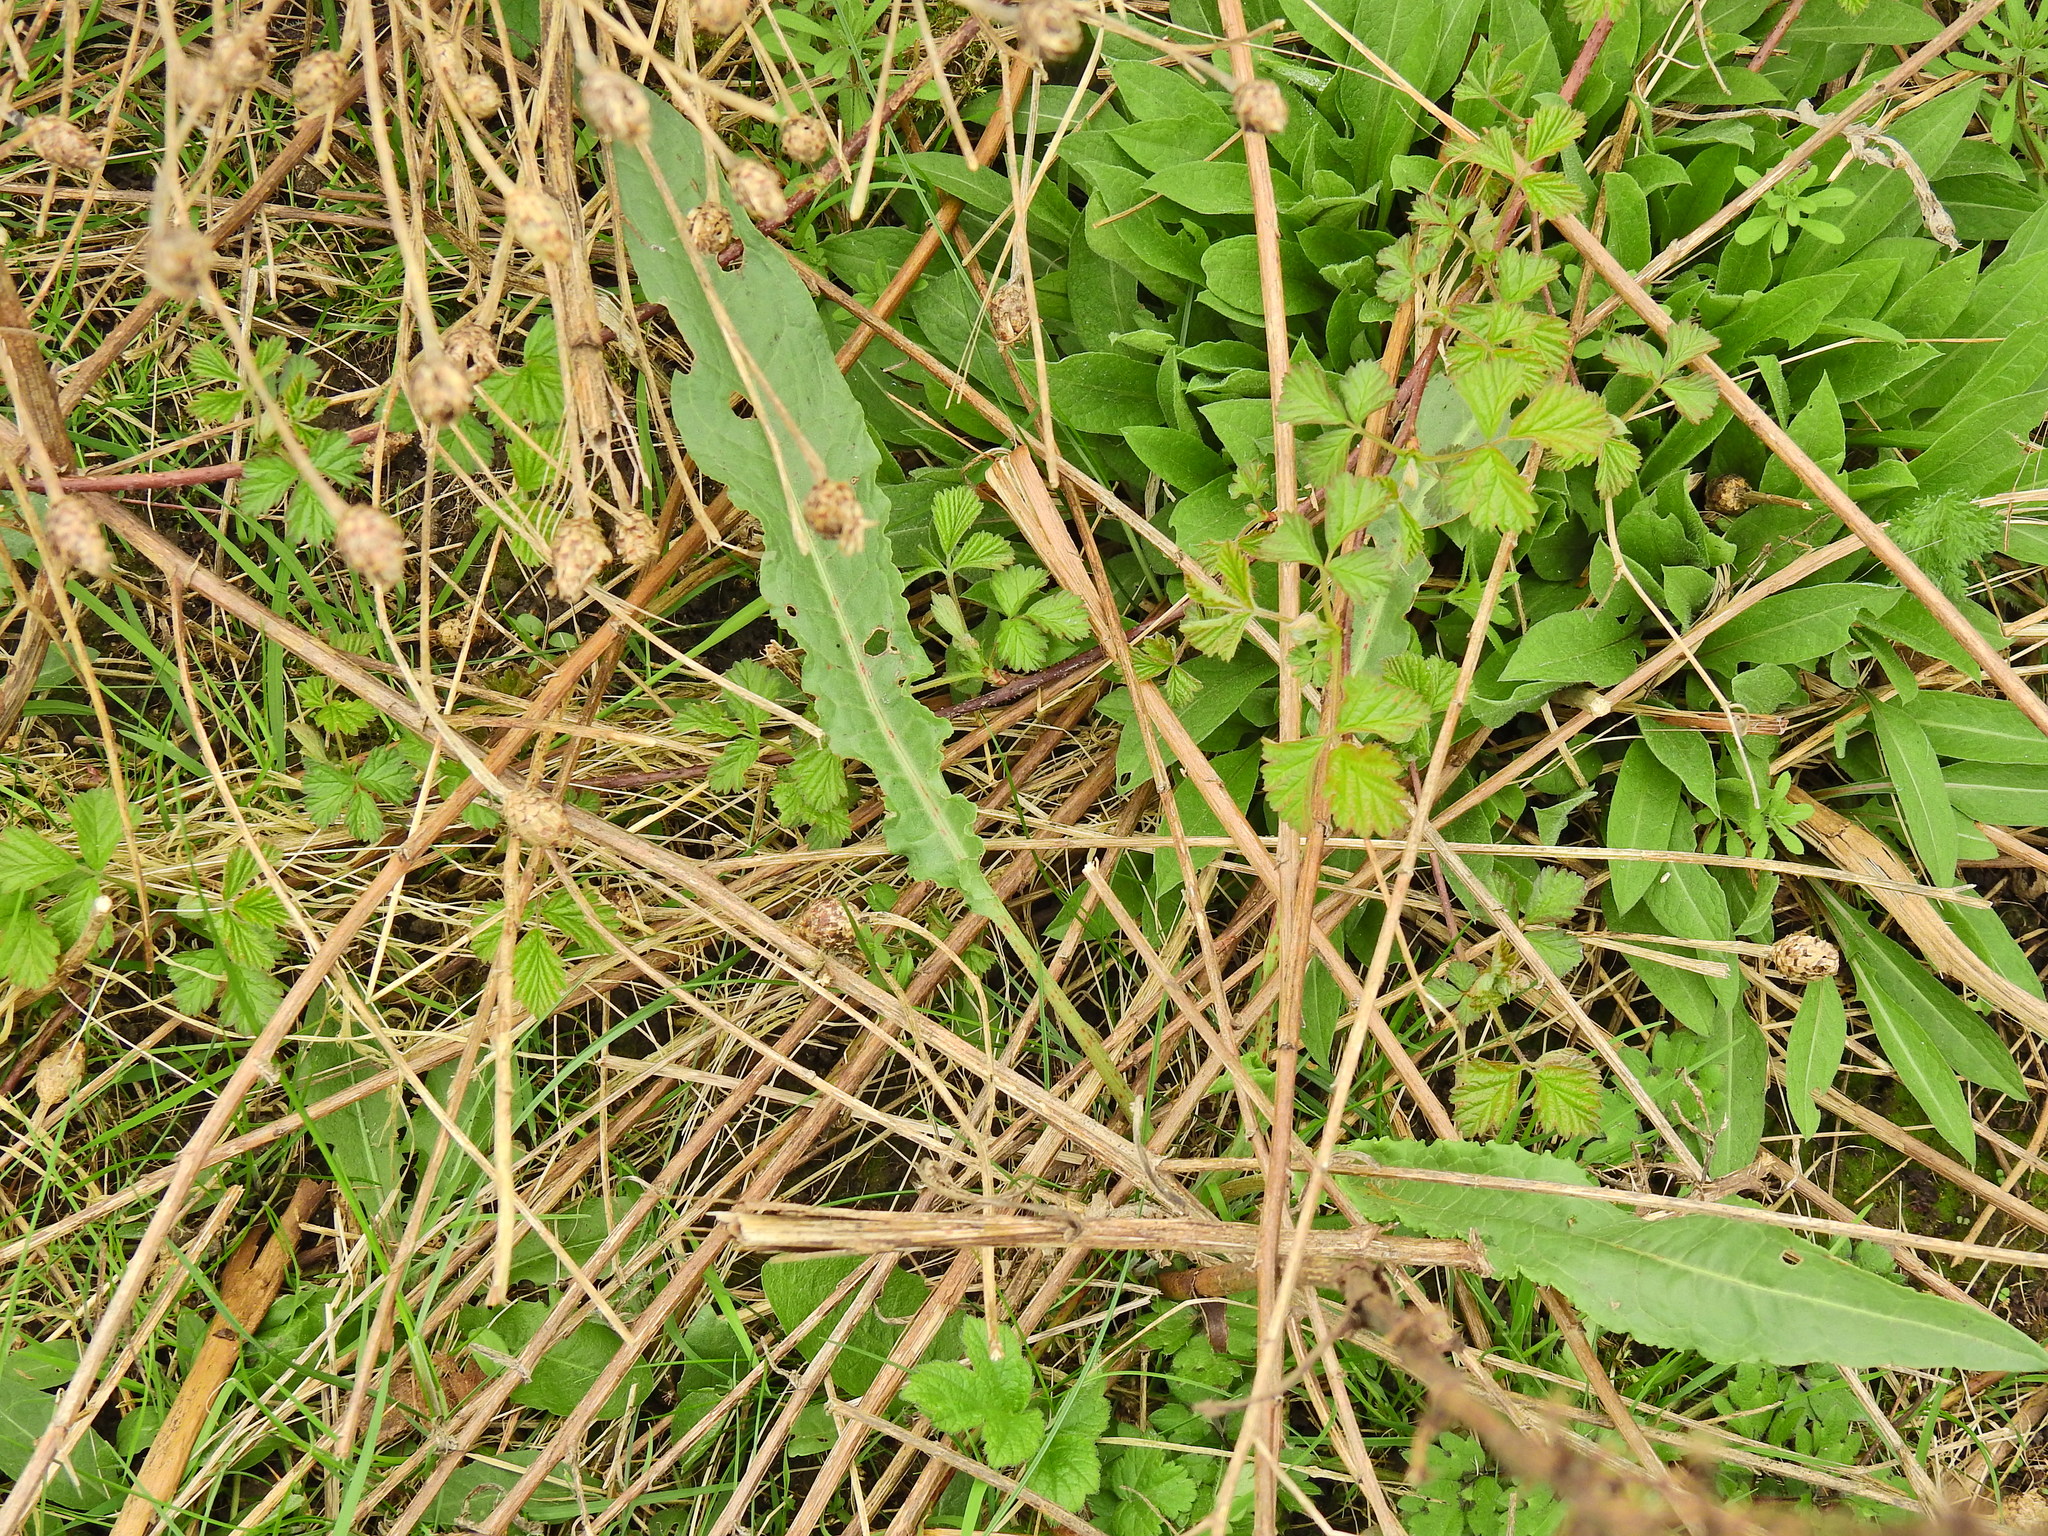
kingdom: Plantae
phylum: Tracheophyta
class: Magnoliopsida
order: Caryophyllales
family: Polygonaceae
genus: Rumex
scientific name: Rumex crispus
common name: Curled dock
